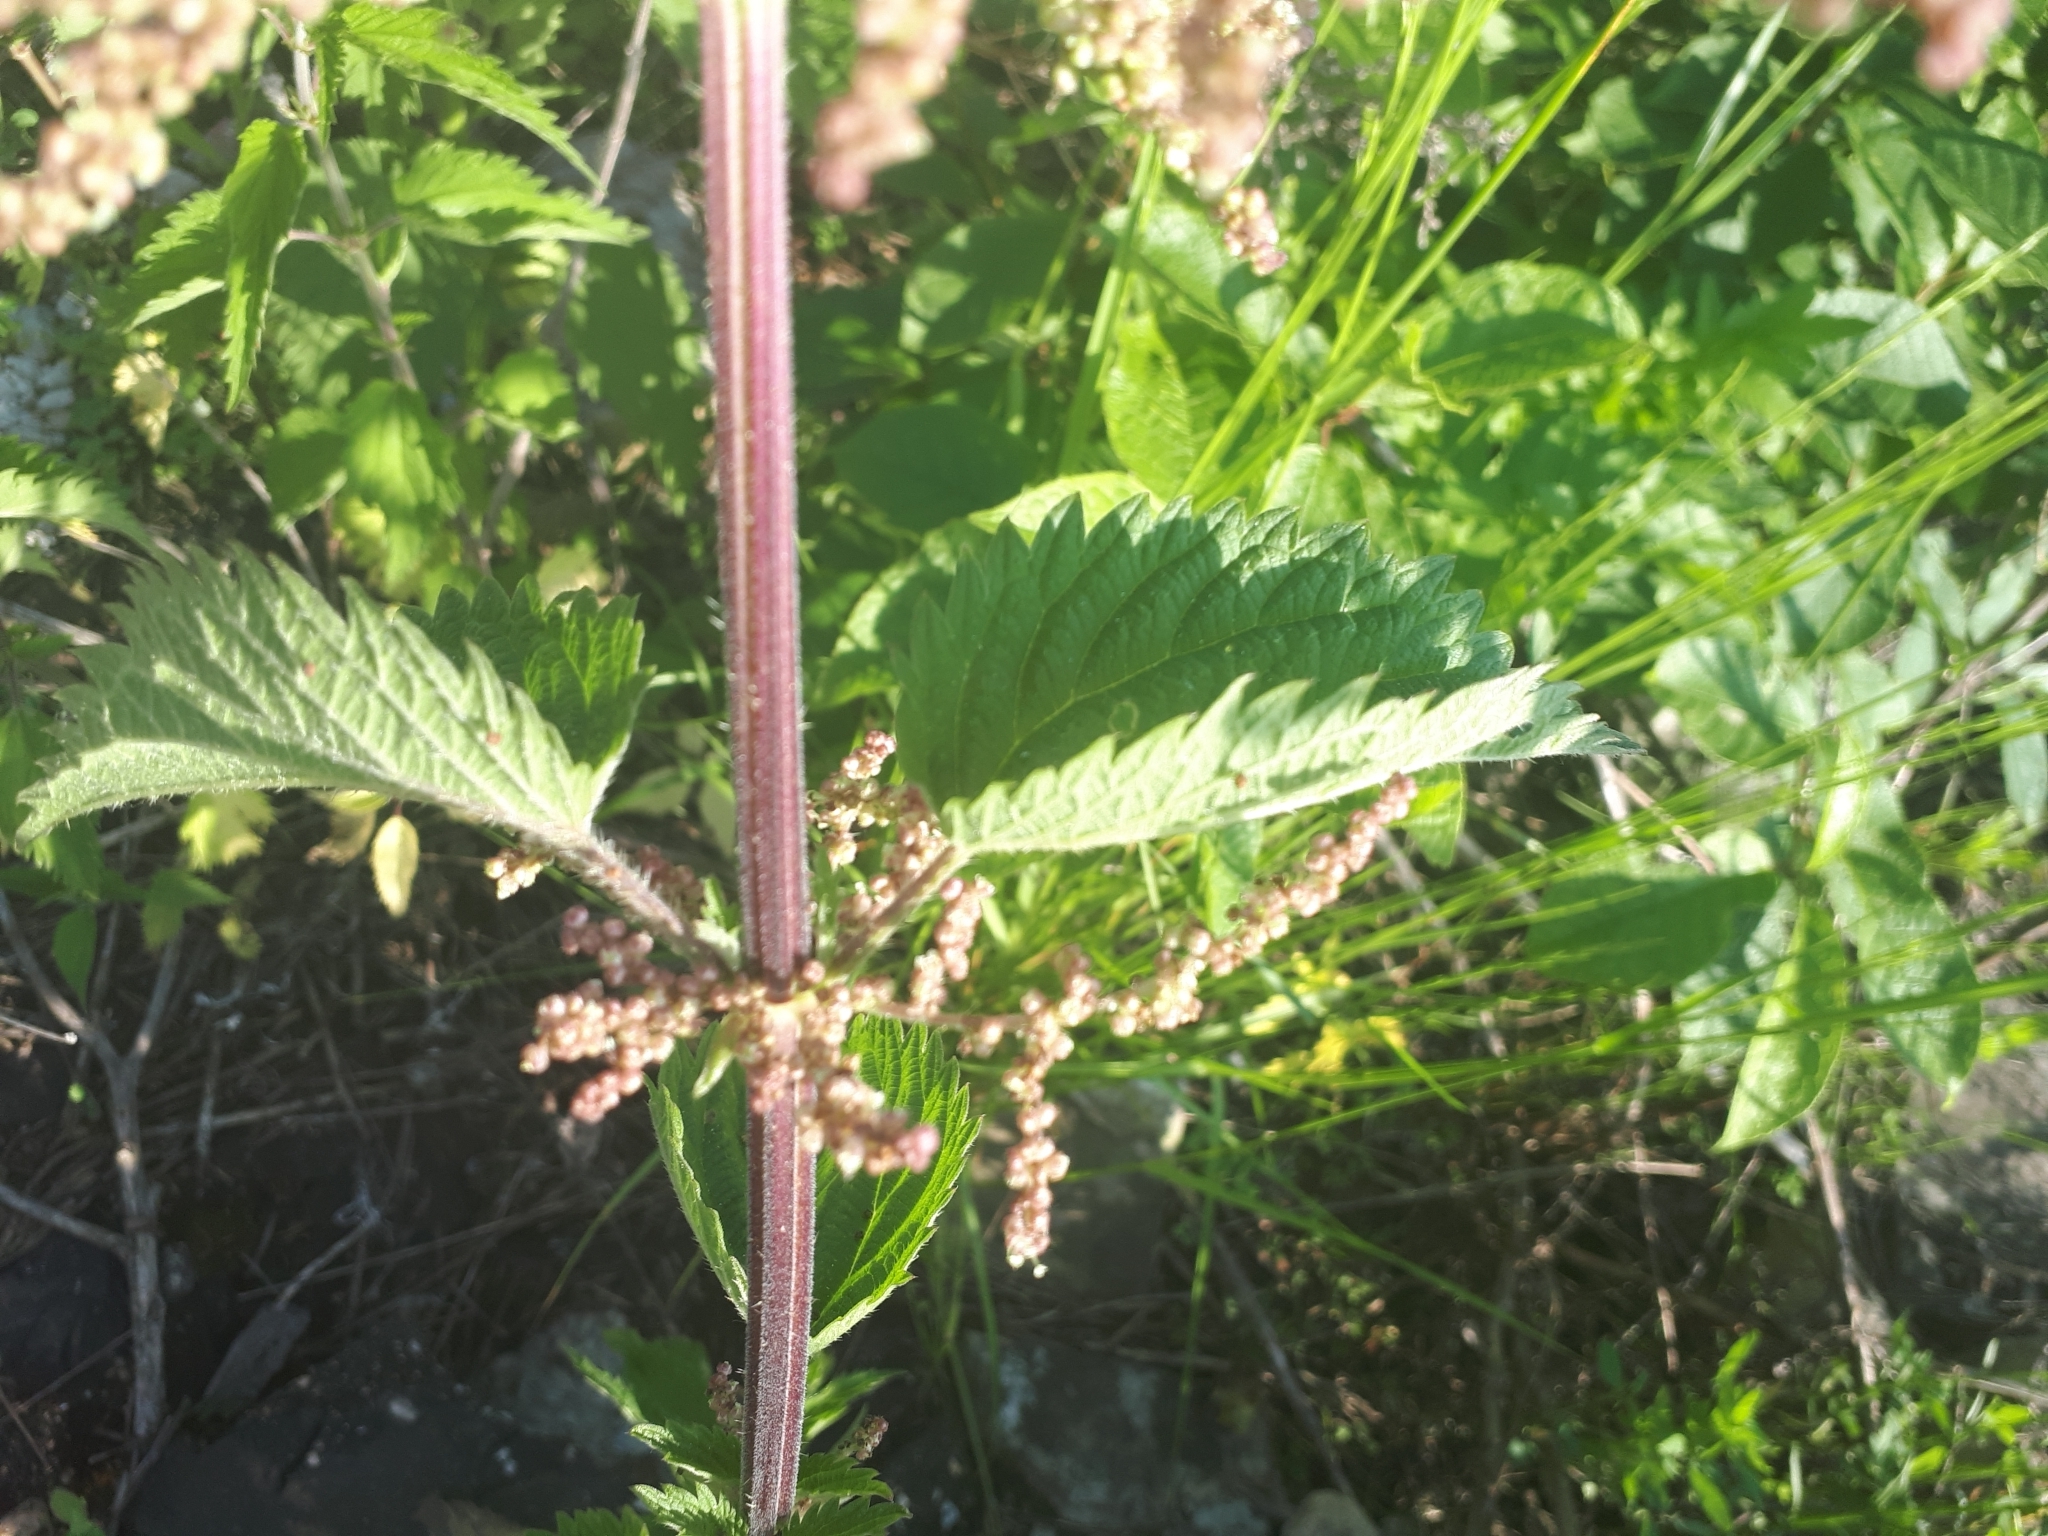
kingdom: Plantae
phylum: Tracheophyta
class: Magnoliopsida
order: Rosales
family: Urticaceae
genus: Urtica
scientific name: Urtica dioica
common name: Common nettle
